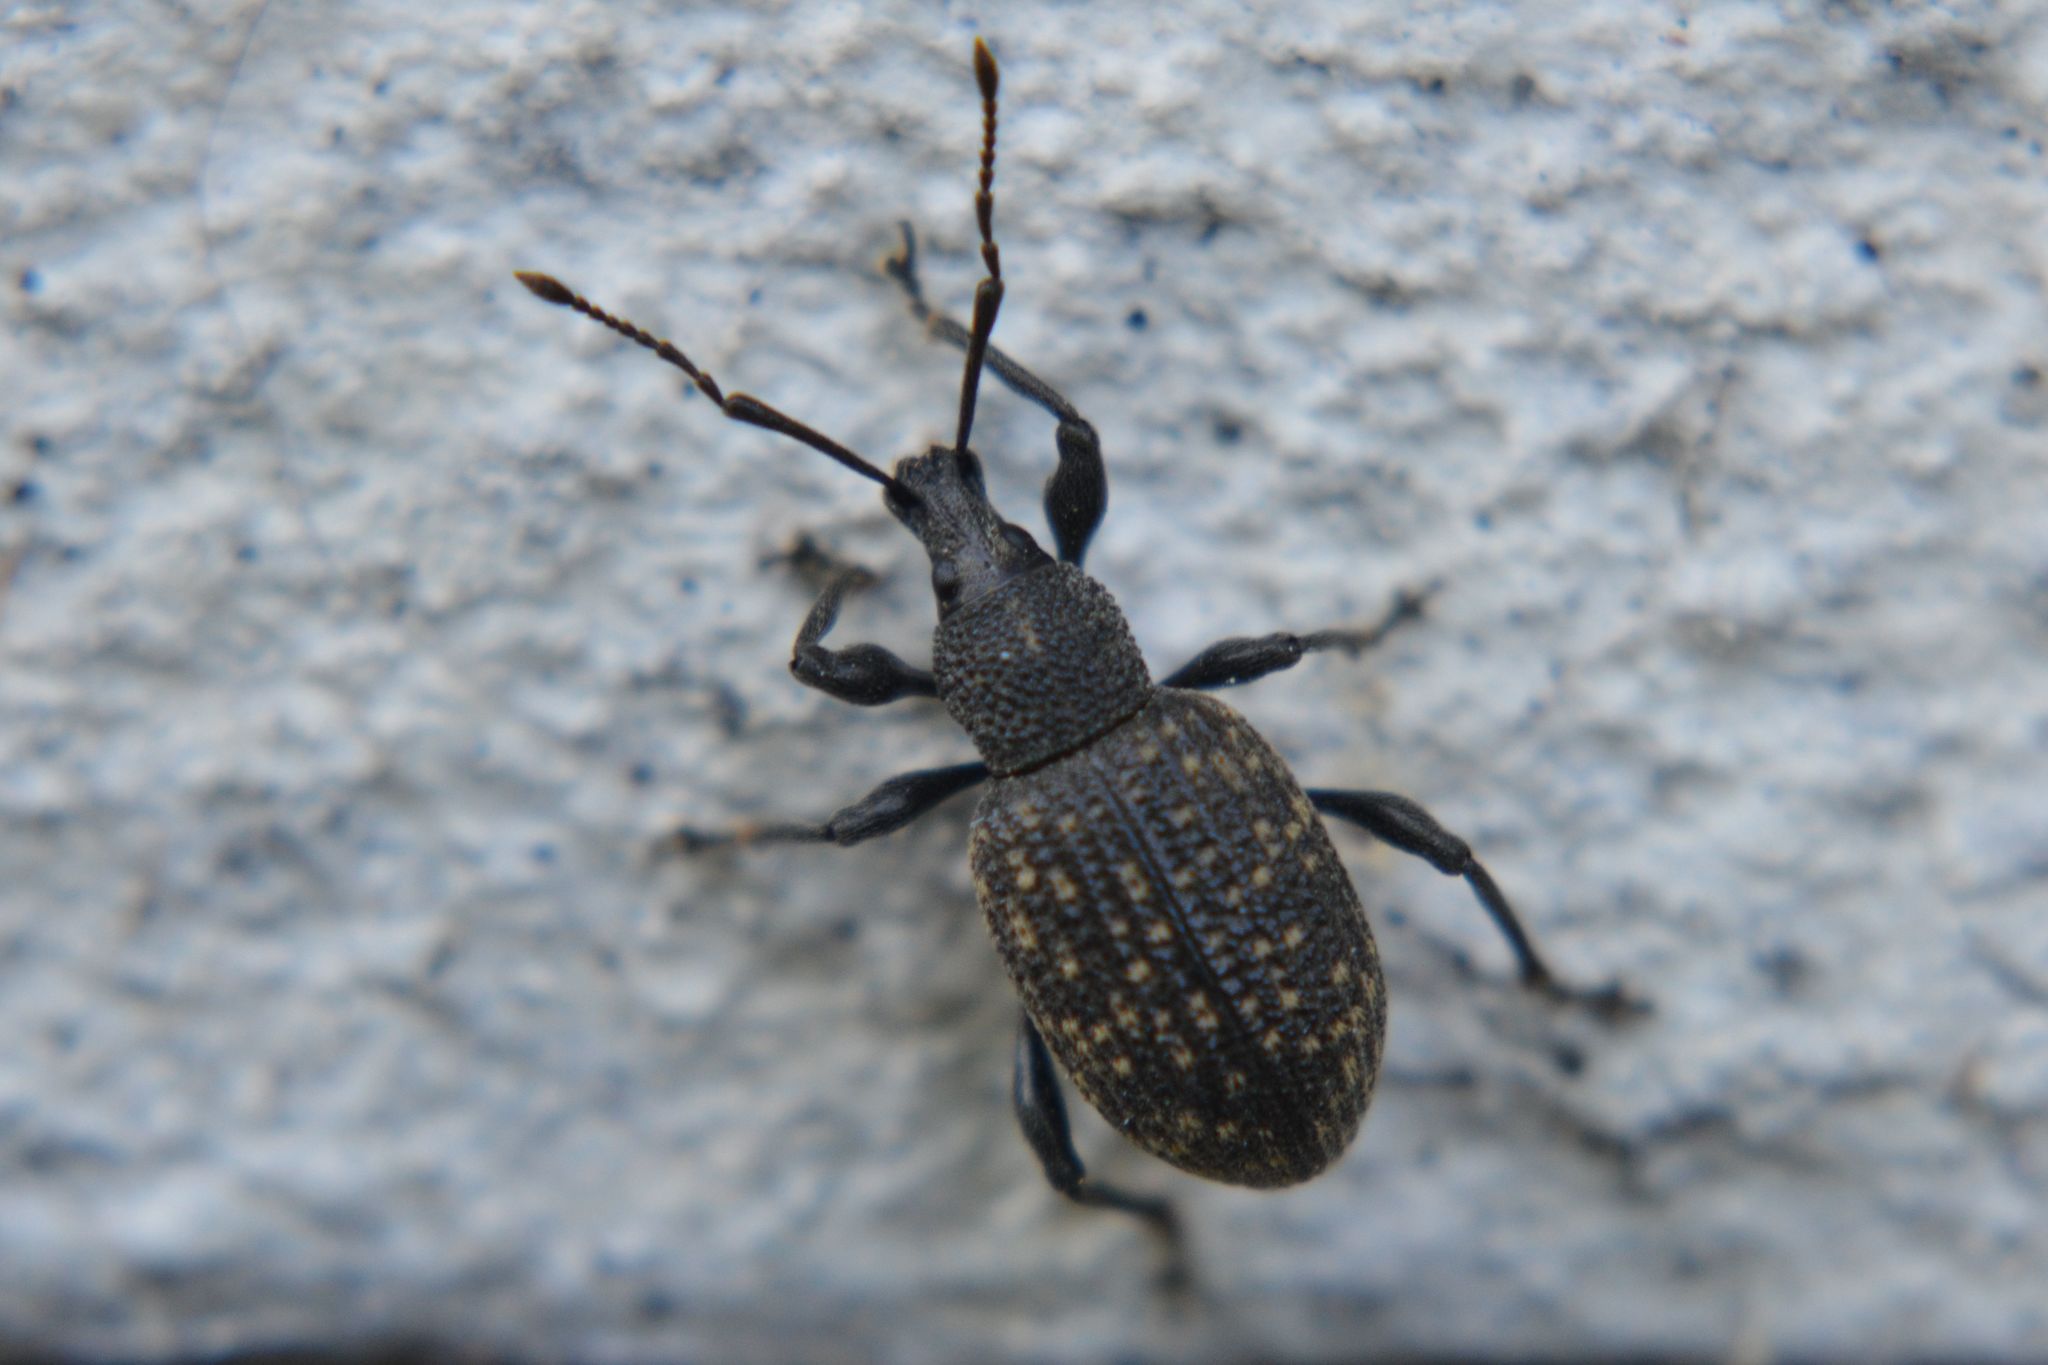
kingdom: Animalia
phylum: Arthropoda
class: Insecta
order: Coleoptera
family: Curculionidae
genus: Otiorhynchus
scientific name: Otiorhynchus sulcatus
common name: Black vine weevil
